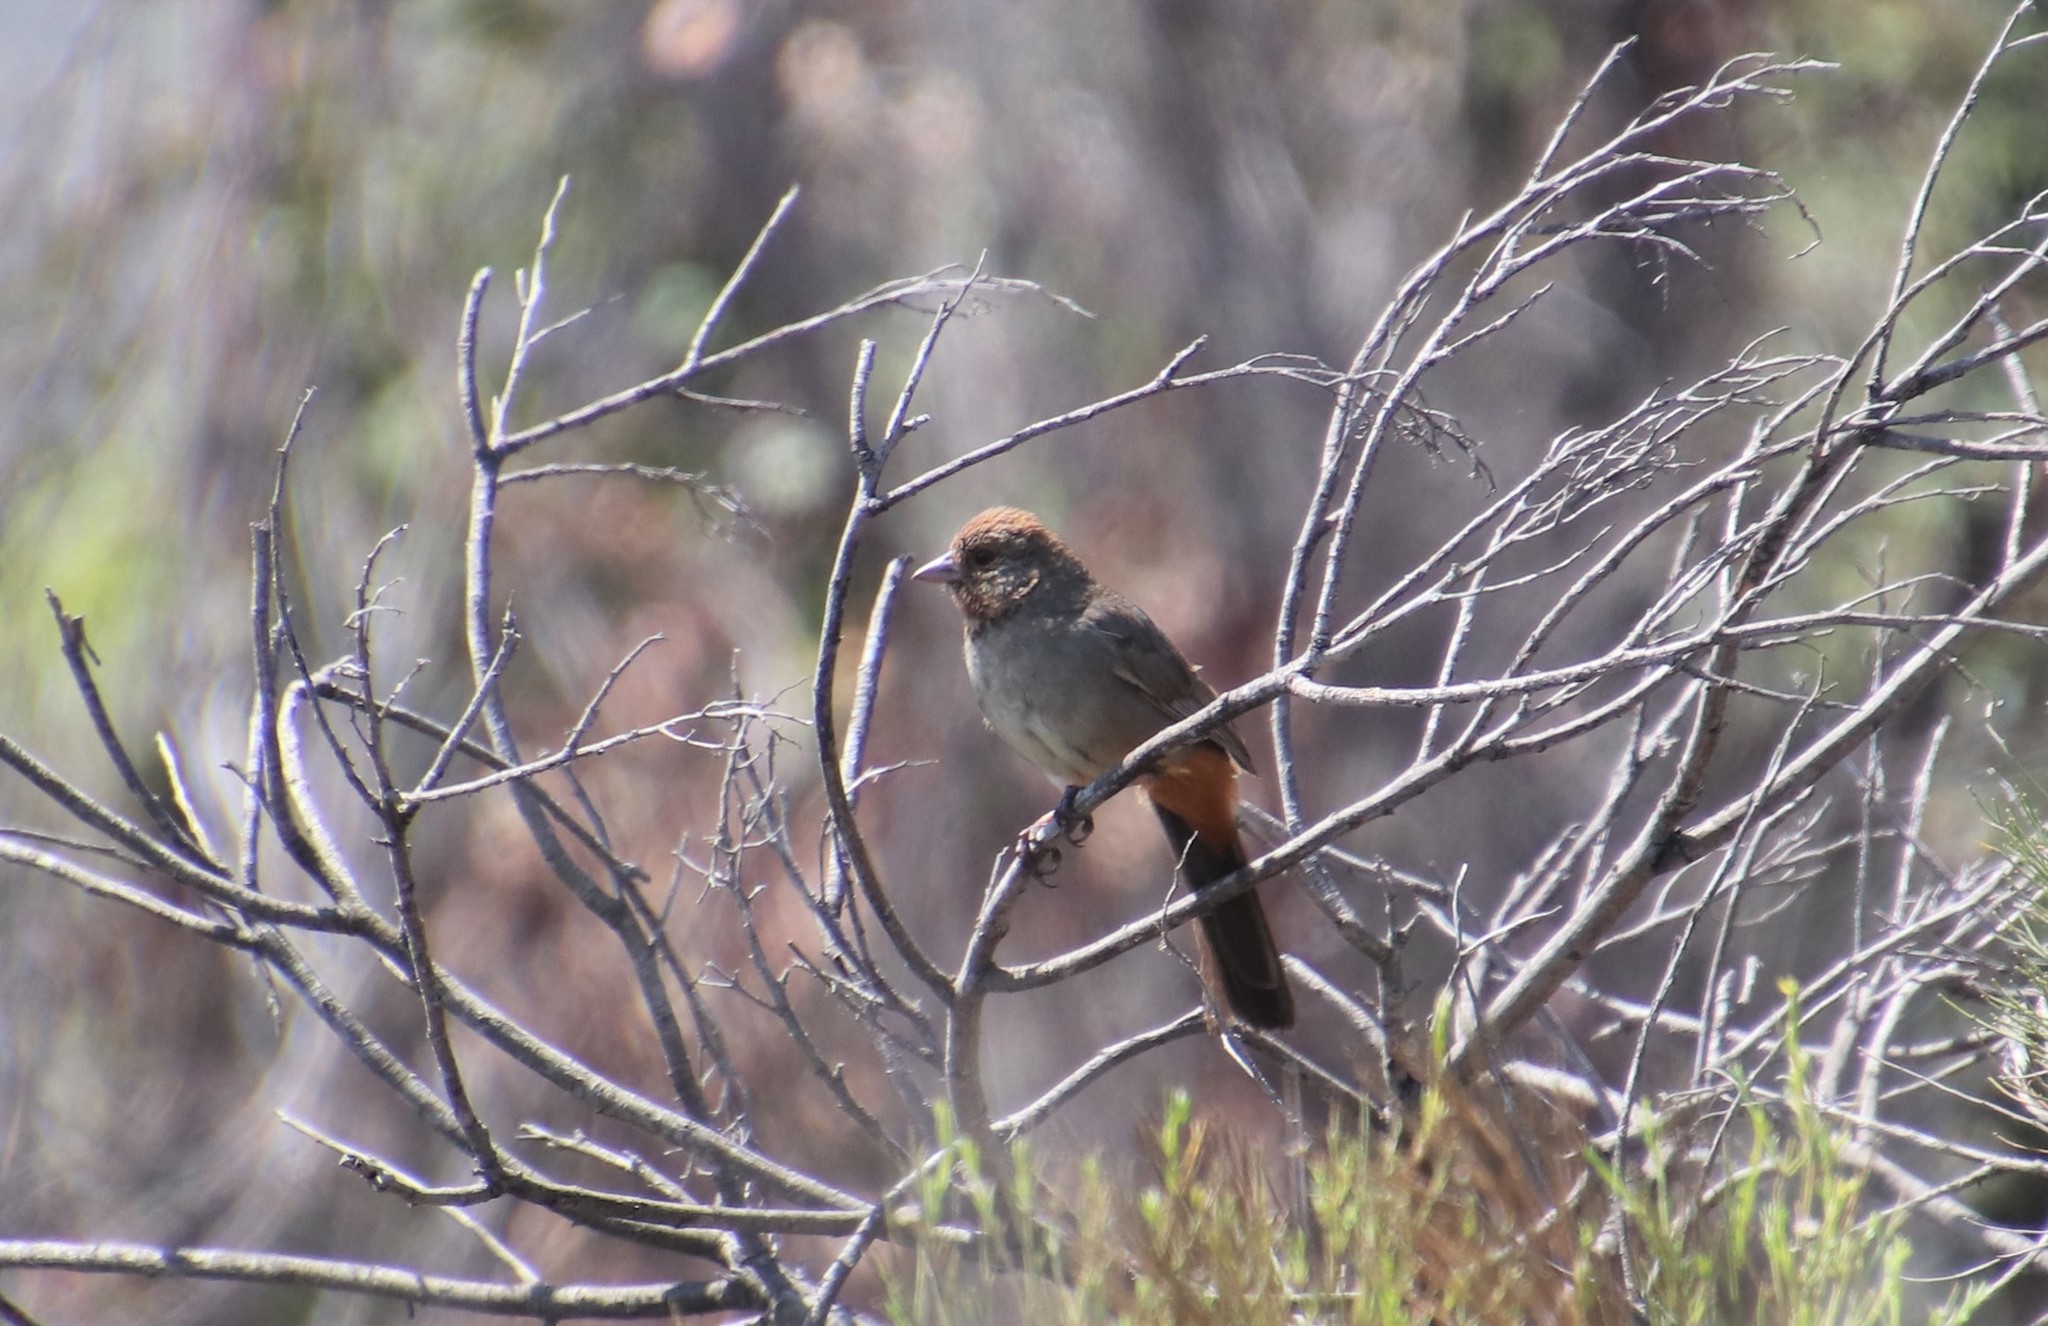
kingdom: Animalia
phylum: Chordata
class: Aves
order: Passeriformes
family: Passerellidae
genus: Melozone
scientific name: Melozone crissalis
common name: California towhee
